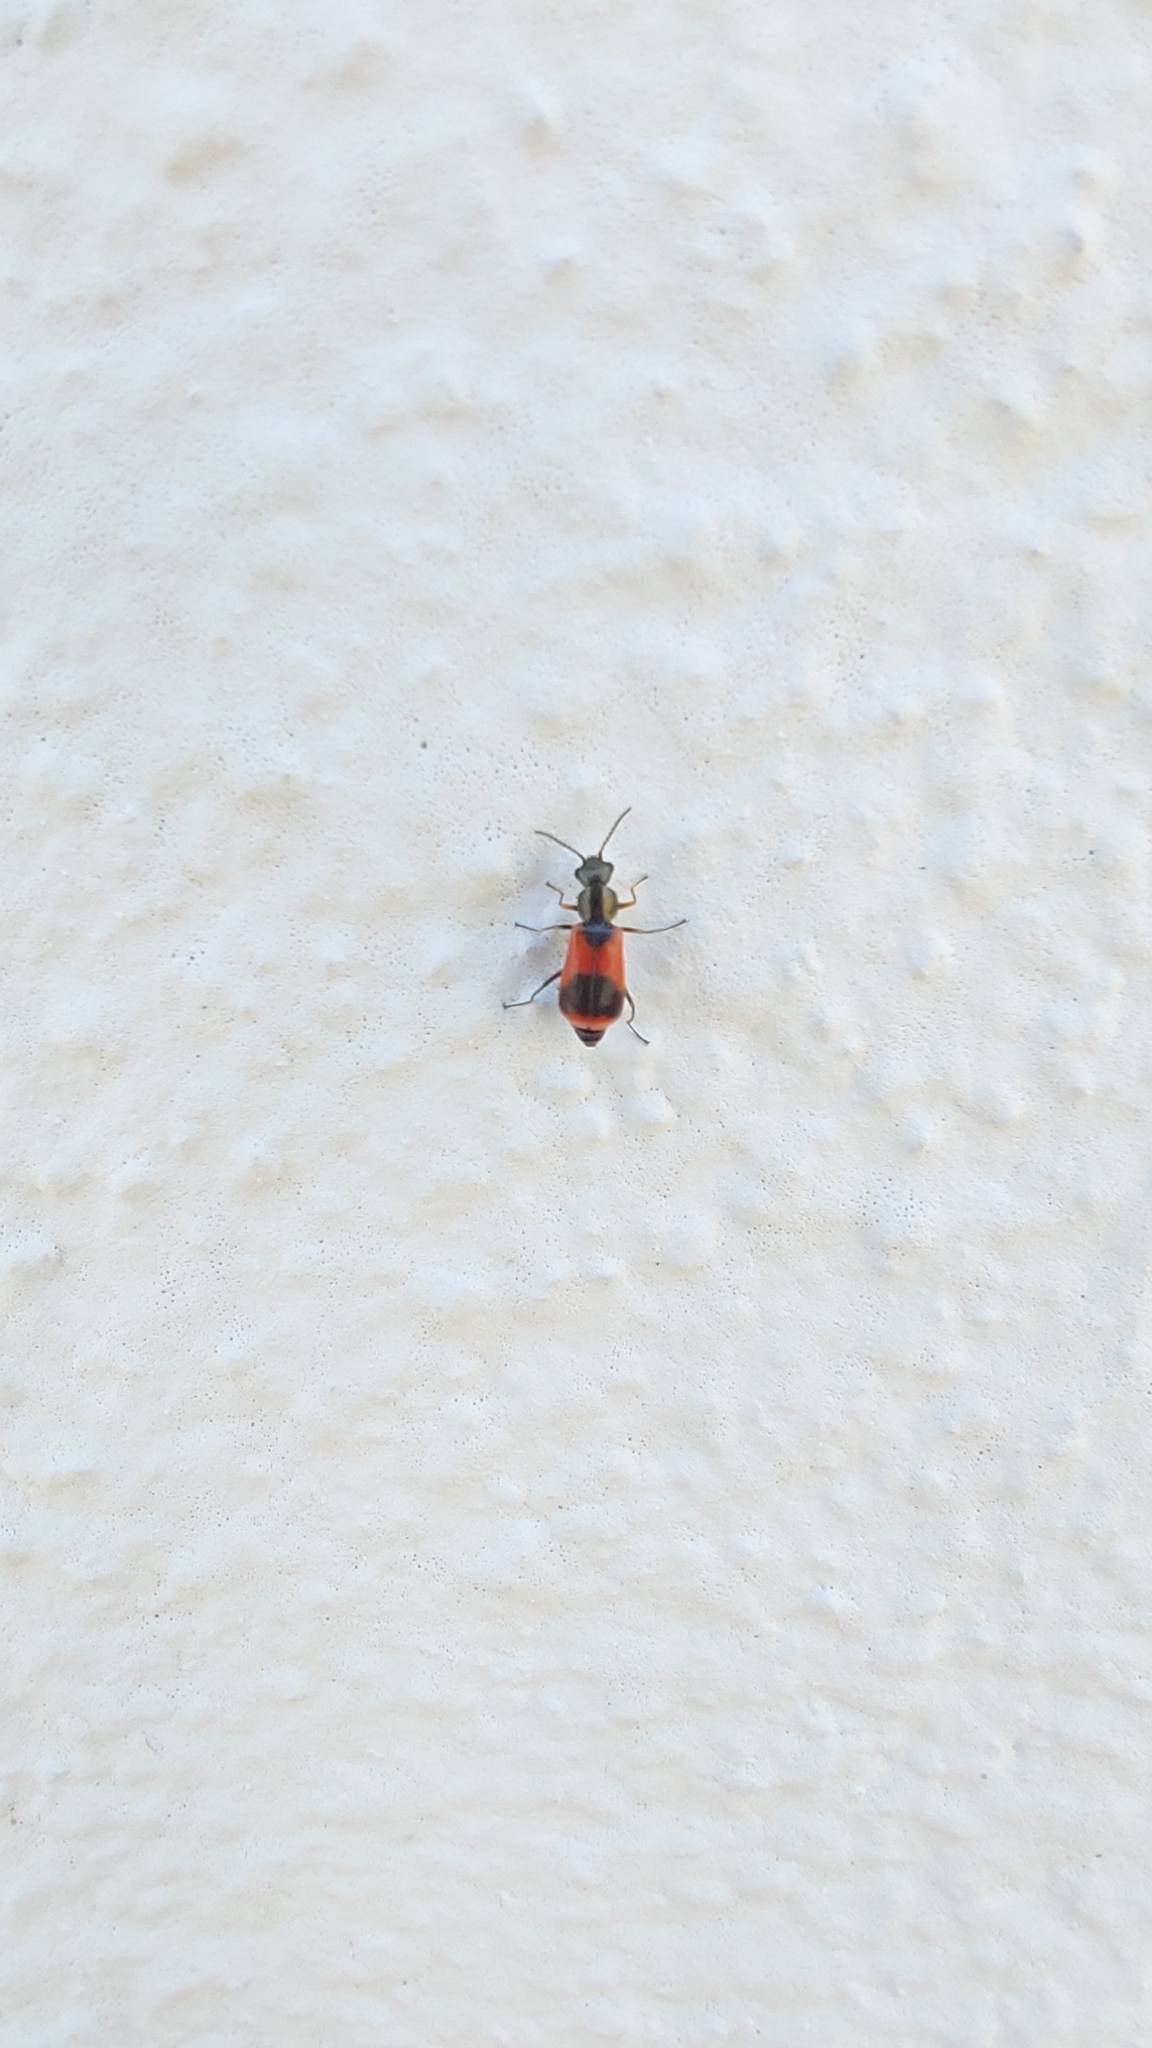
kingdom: Animalia
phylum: Arthropoda
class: Insecta
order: Coleoptera
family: Melyridae
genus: Anthocomus
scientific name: Anthocomus equestris
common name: Black-banded soft-winged flower beetle
